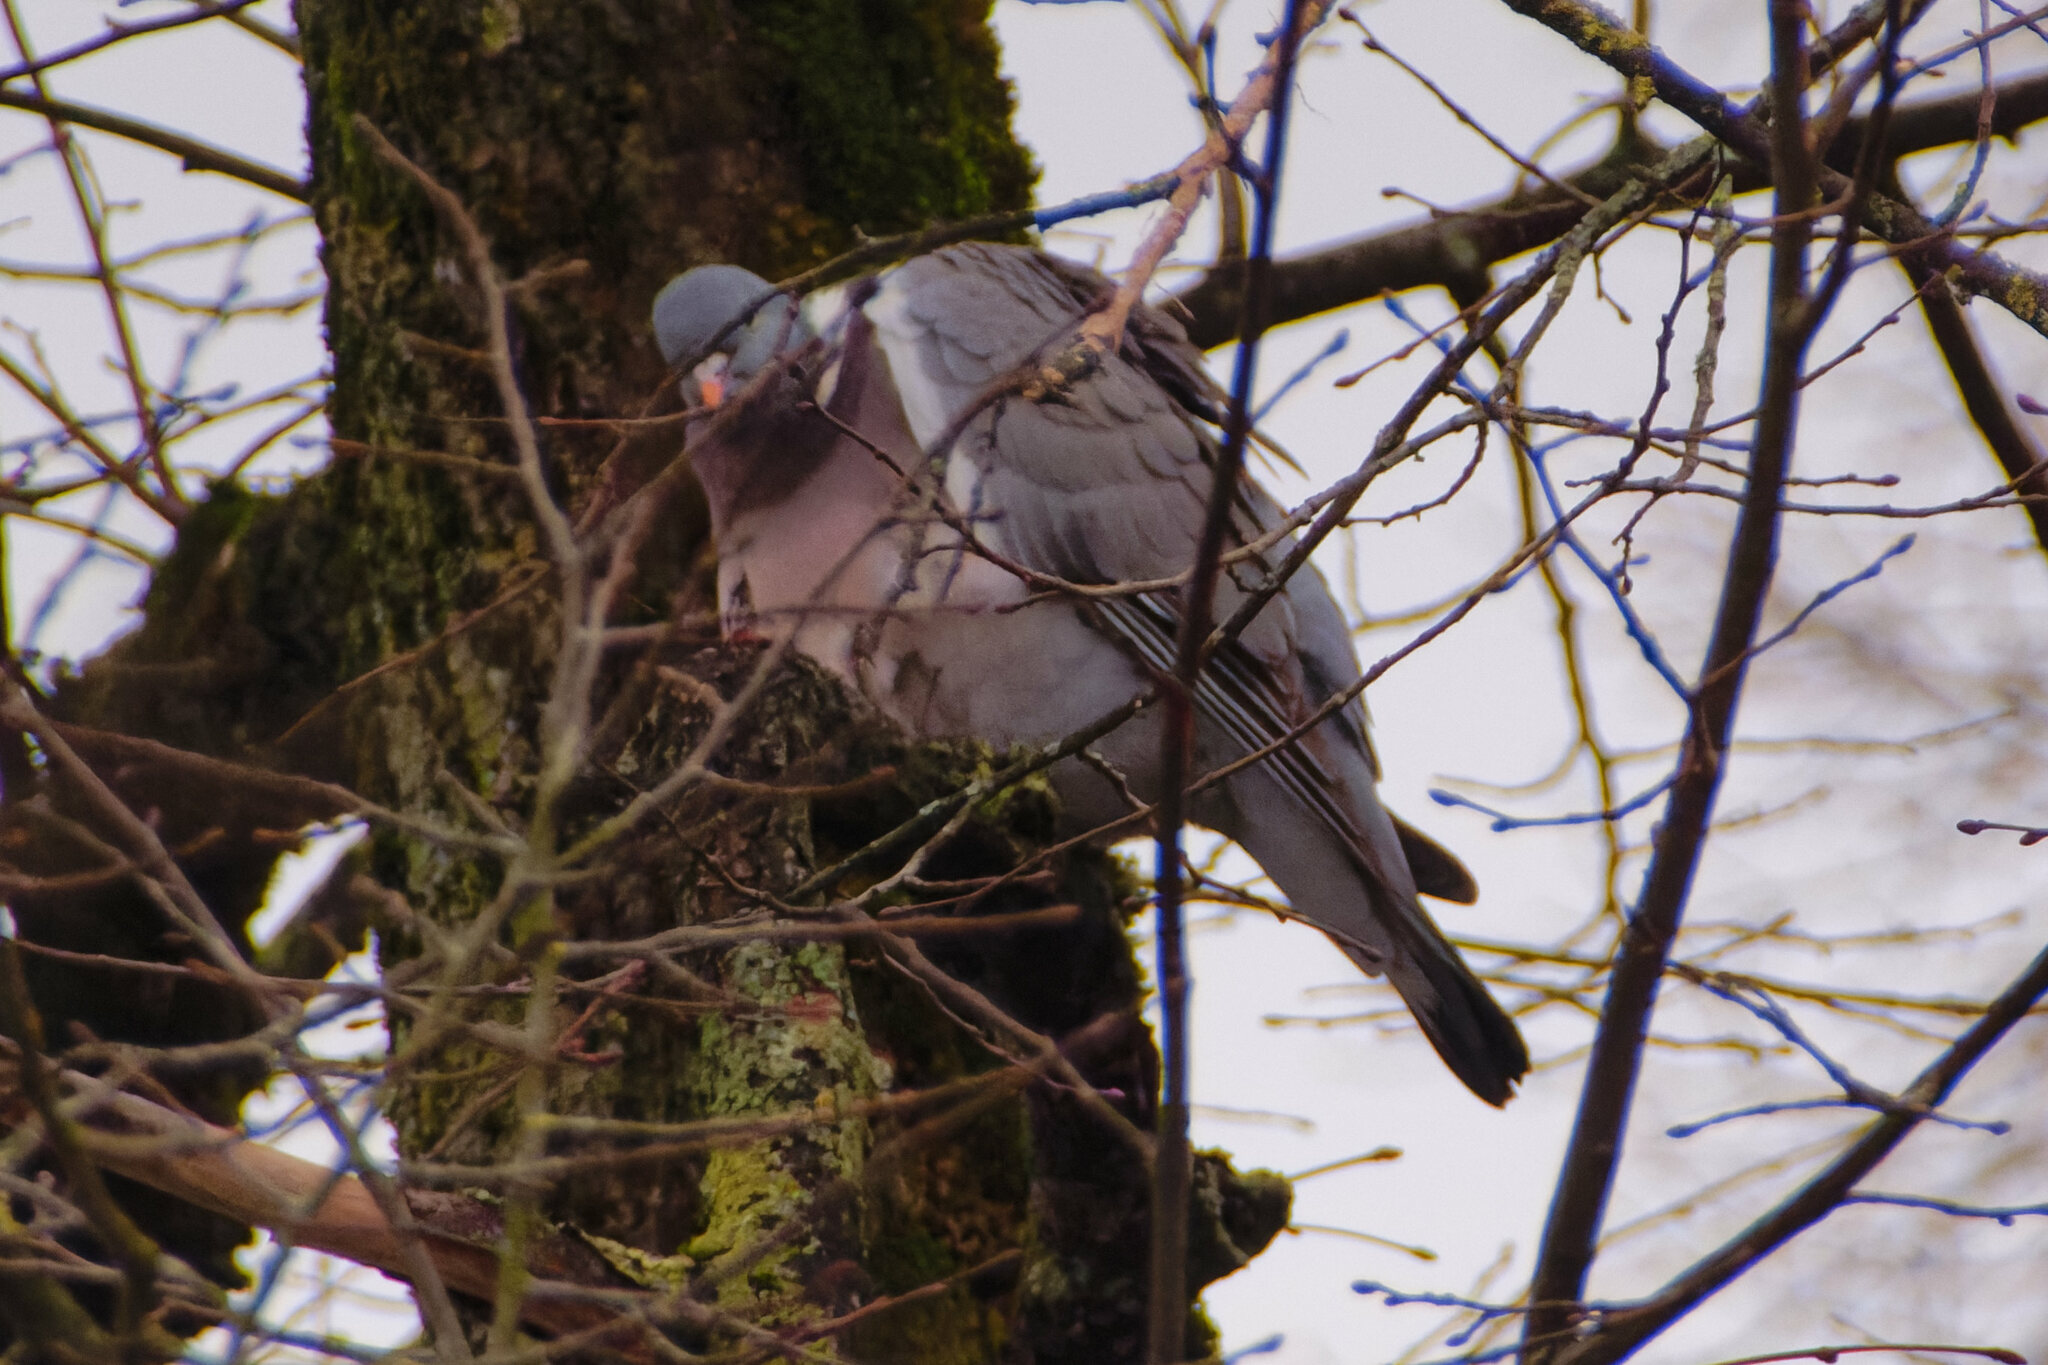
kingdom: Animalia
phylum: Chordata
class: Aves
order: Columbiformes
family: Columbidae
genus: Columba
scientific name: Columba palumbus
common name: Common wood pigeon
